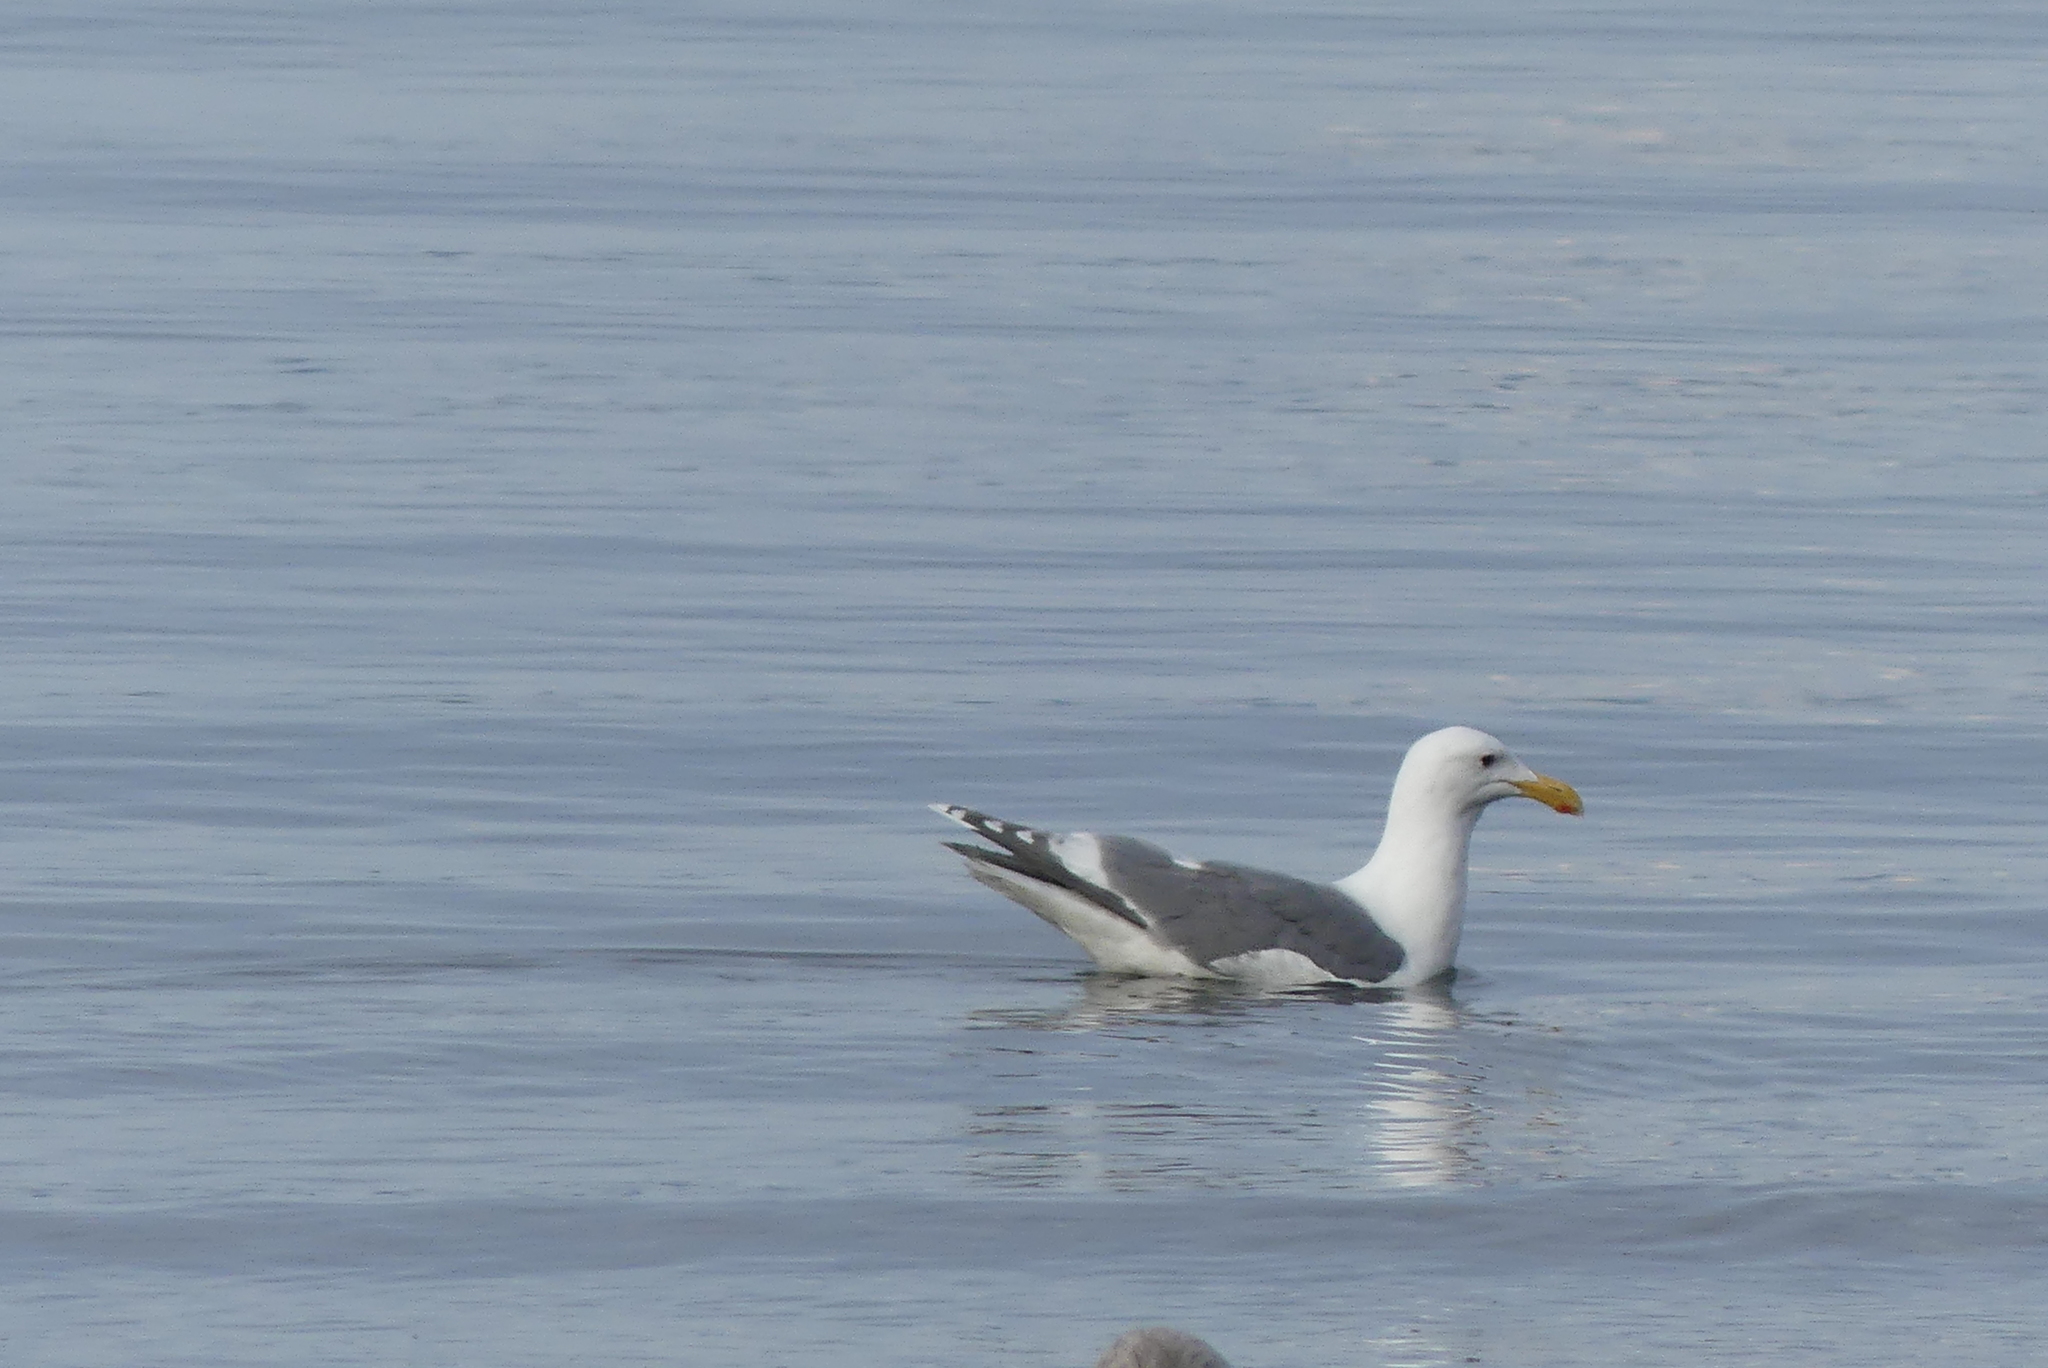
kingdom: Animalia
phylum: Chordata
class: Aves
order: Charadriiformes
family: Laridae
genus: Larus
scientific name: Larus glaucescens
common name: Glaucous-winged gull
